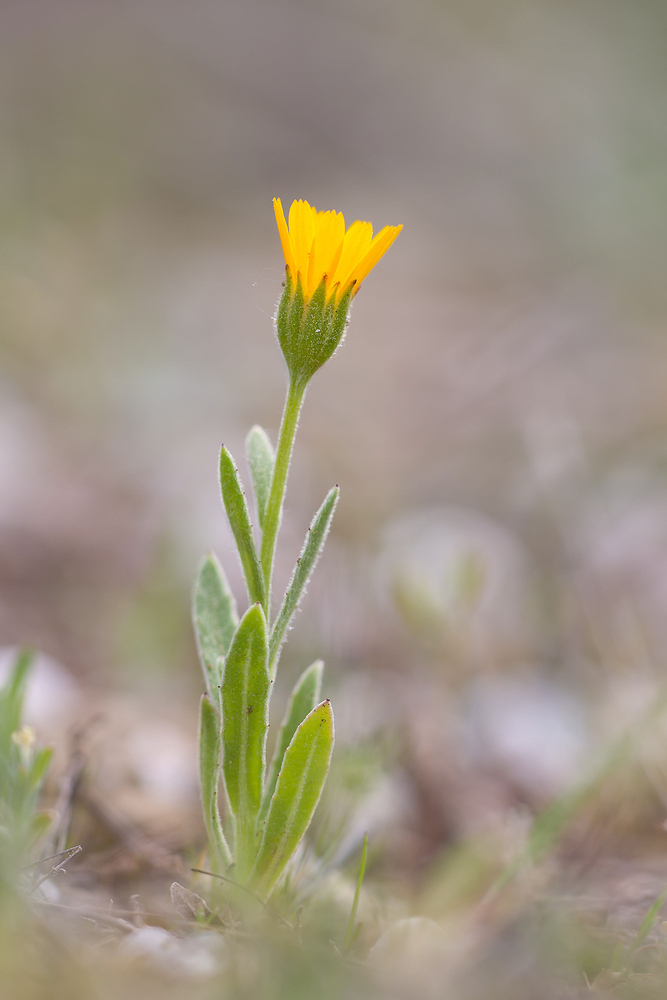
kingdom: Plantae
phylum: Tracheophyta
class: Magnoliopsida
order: Asterales
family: Asteraceae
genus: Calendula
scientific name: Calendula arvensis
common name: Field marigold
